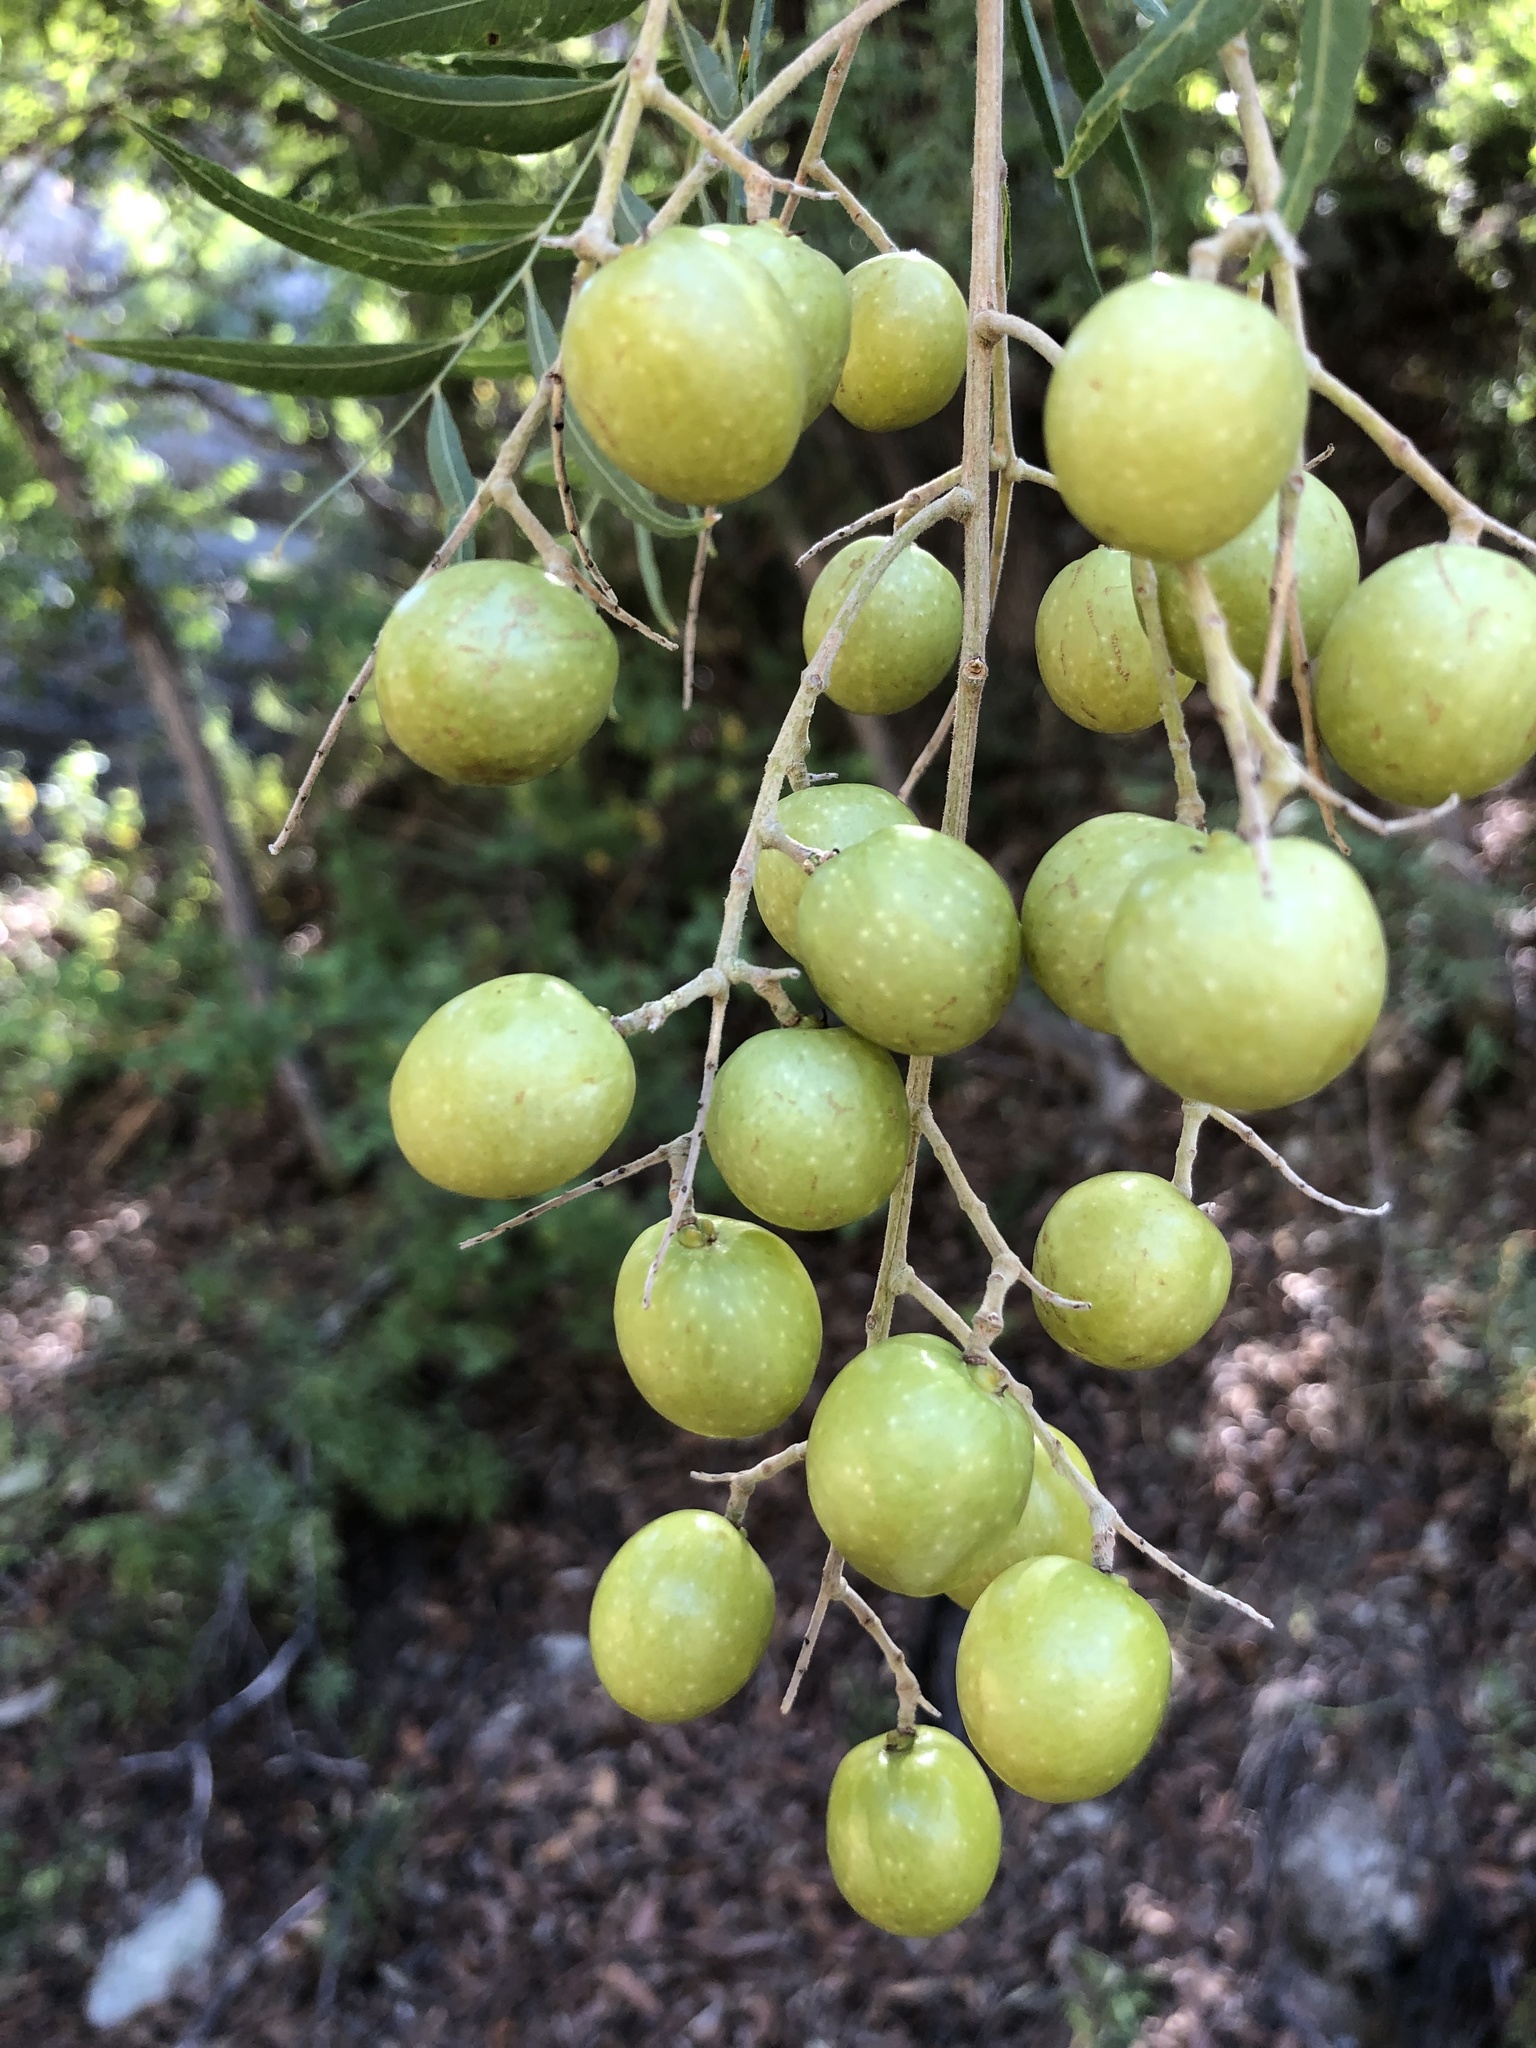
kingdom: Plantae
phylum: Tracheophyta
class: Magnoliopsida
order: Sapindales
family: Sapindaceae
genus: Sapindus
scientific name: Sapindus drummondii
